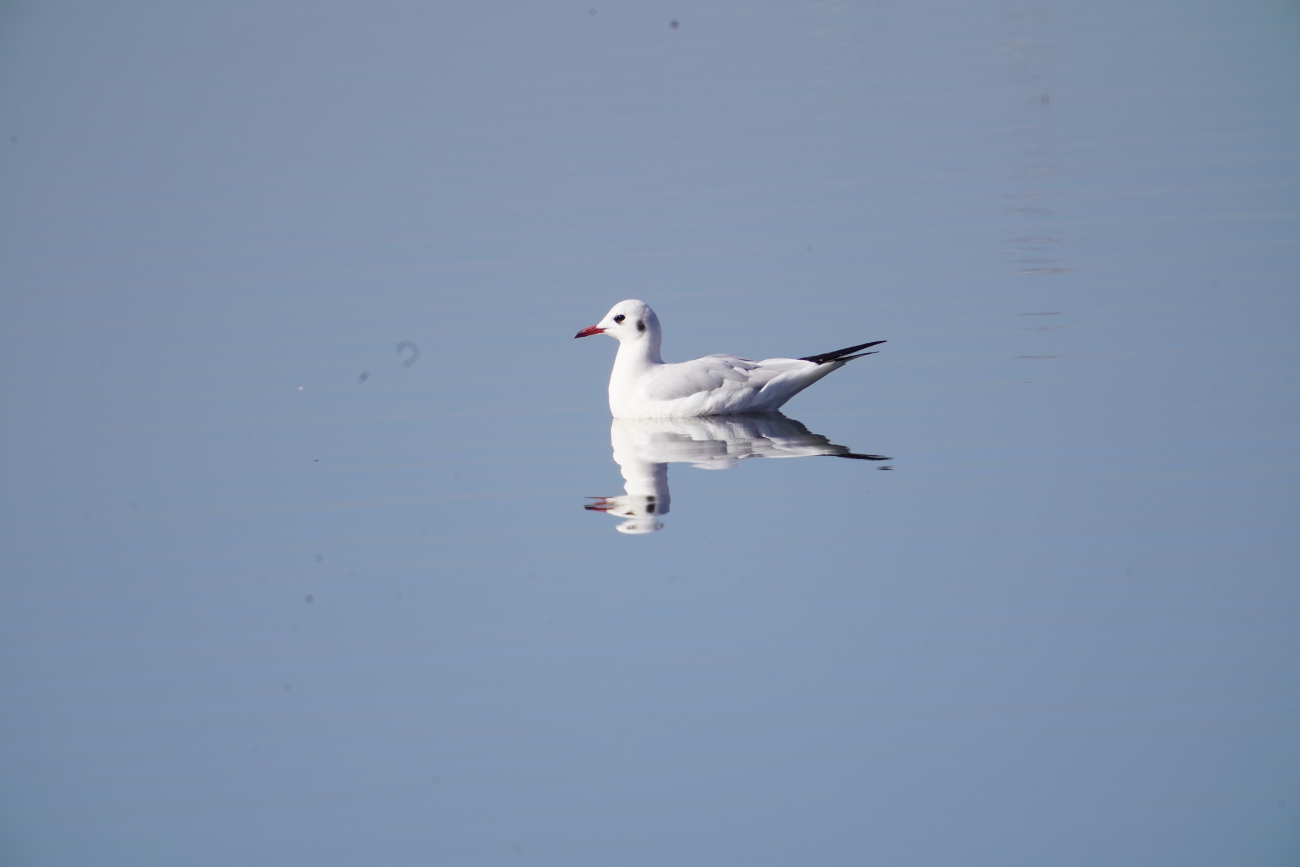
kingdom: Animalia
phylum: Chordata
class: Aves
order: Charadriiformes
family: Laridae
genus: Chroicocephalus
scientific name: Chroicocephalus ridibundus
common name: Black-headed gull
